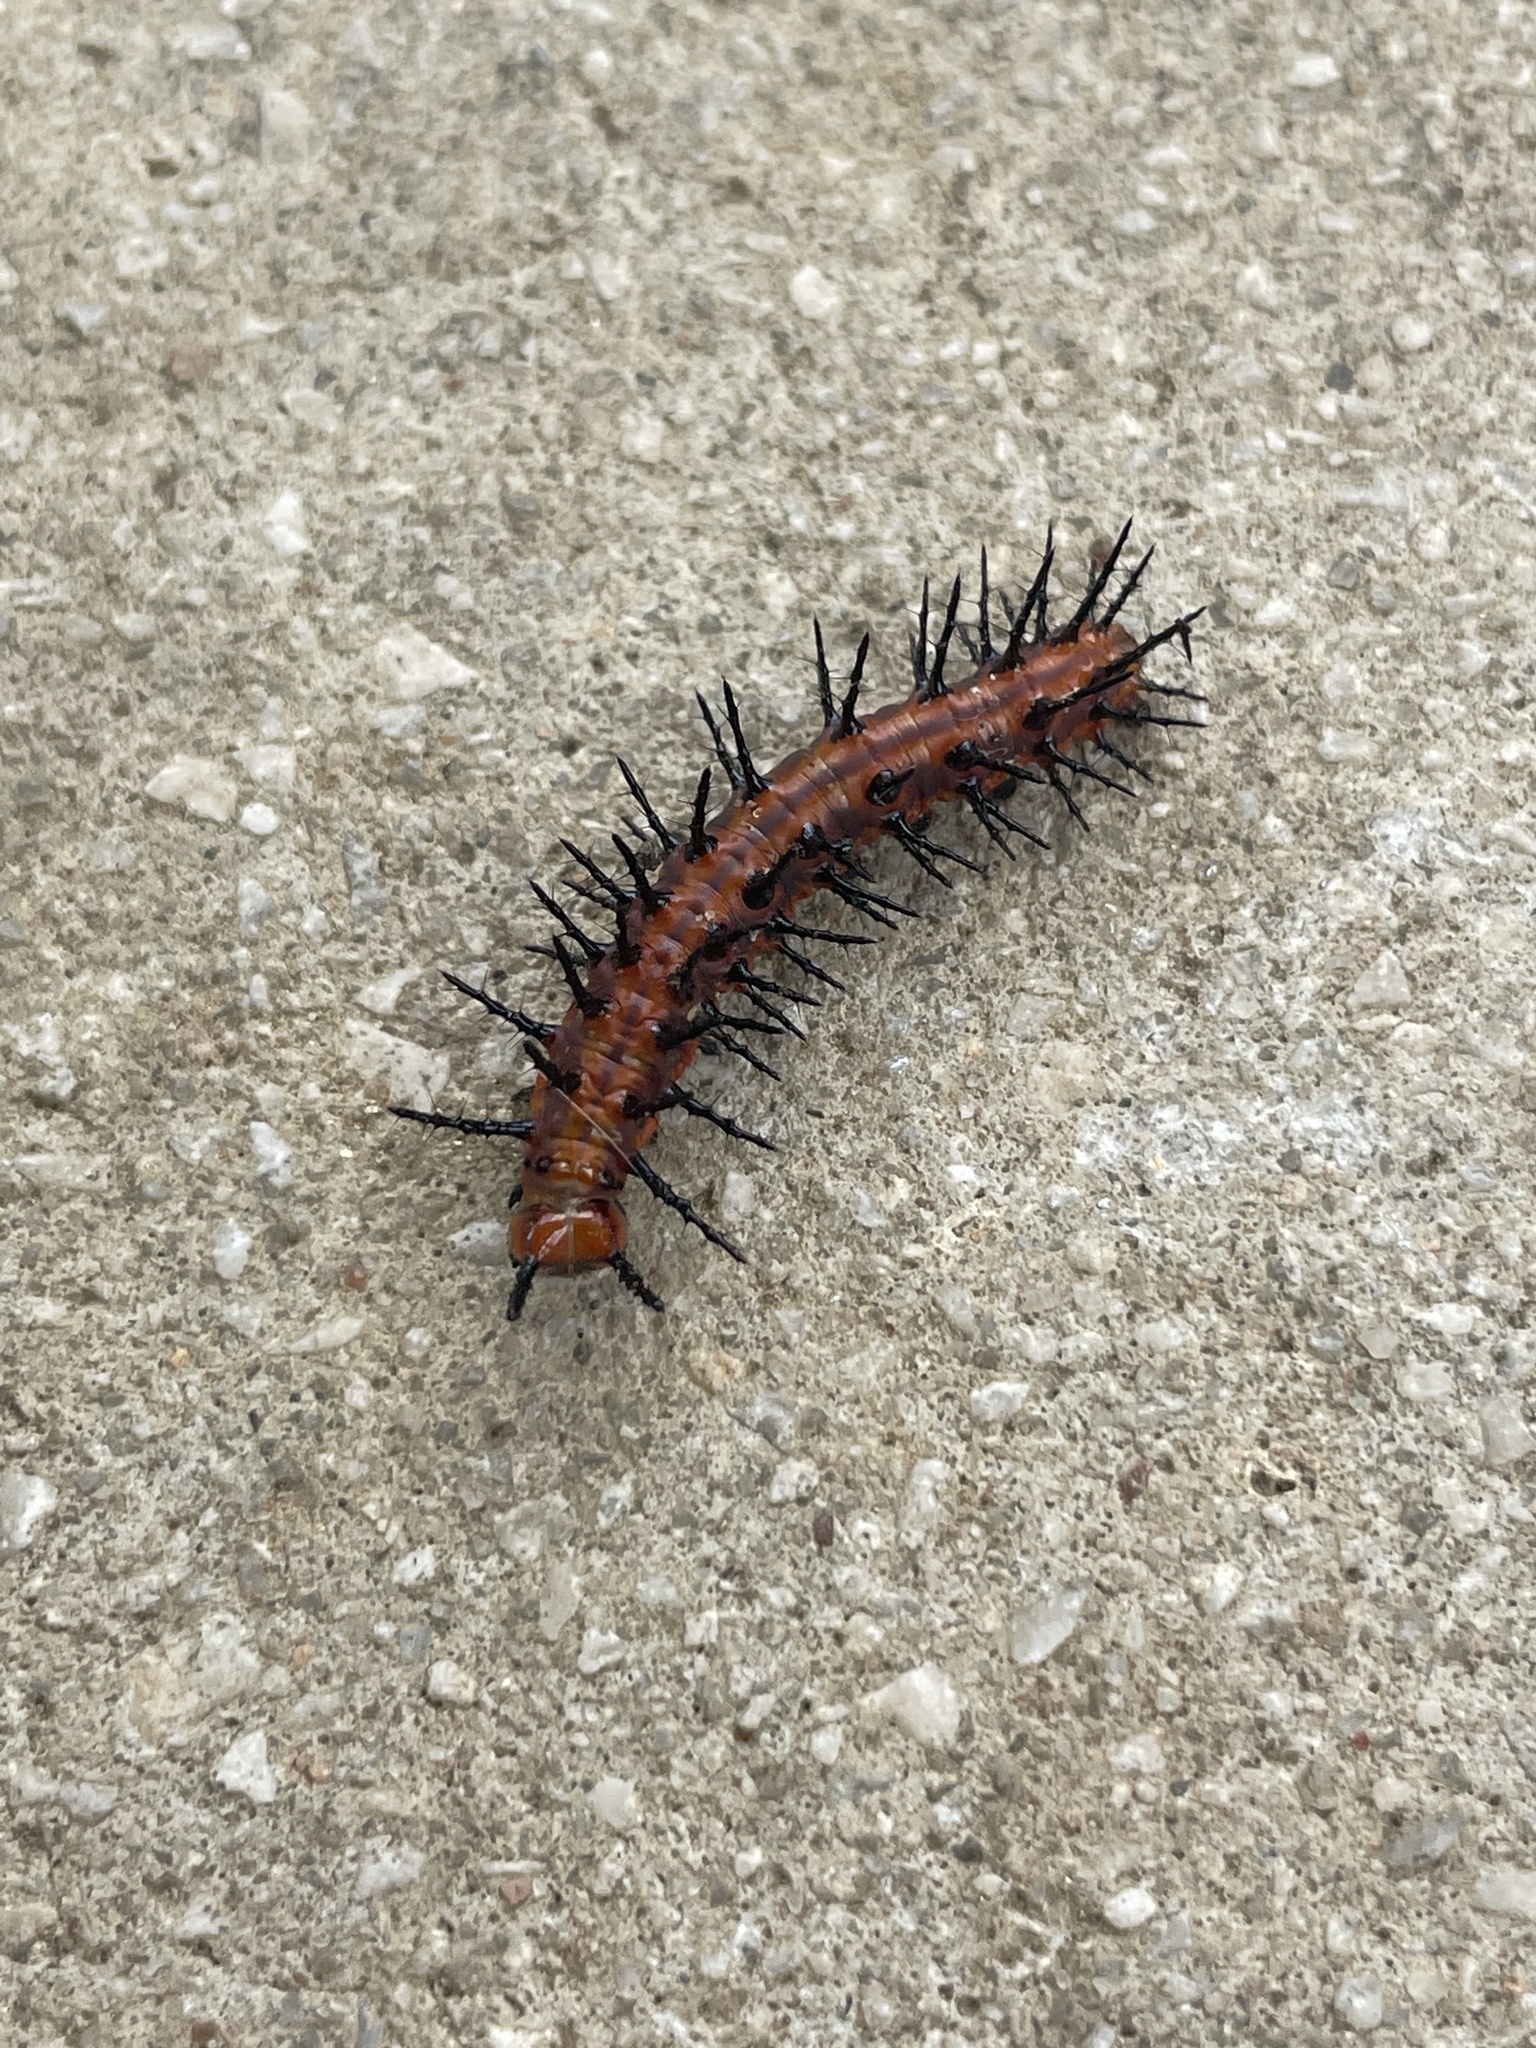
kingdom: Animalia
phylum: Arthropoda
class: Insecta
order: Lepidoptera
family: Nymphalidae
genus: Dione
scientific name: Dione vanillae
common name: Gulf fritillary
